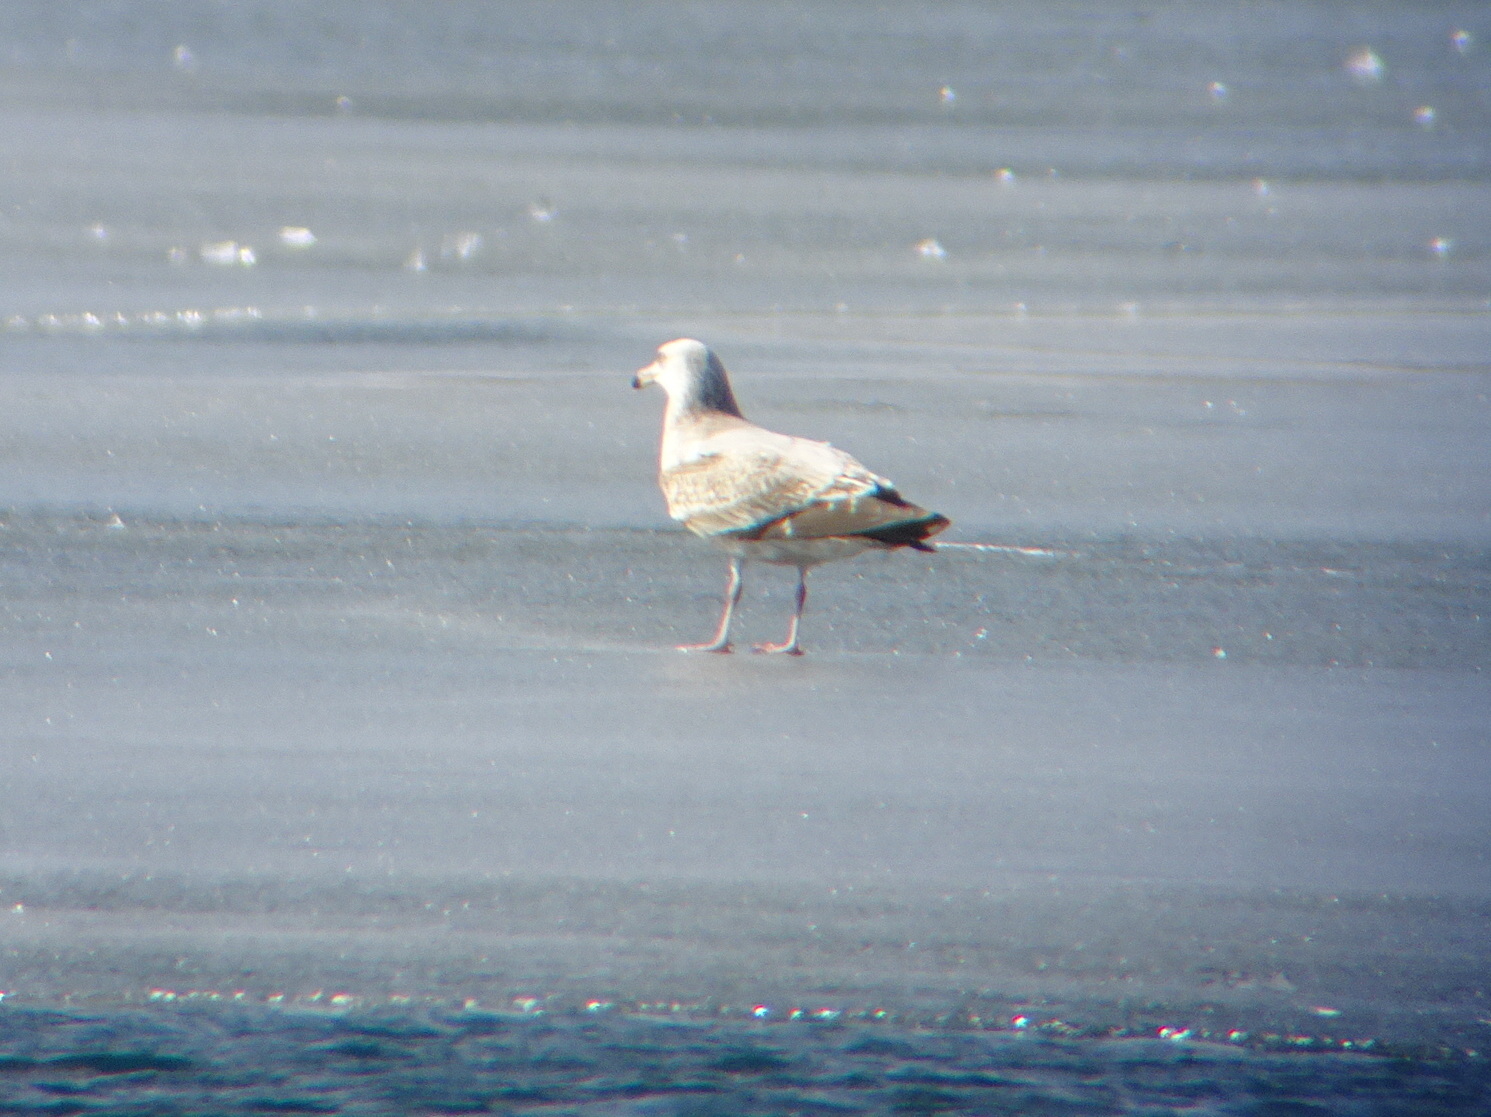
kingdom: Animalia
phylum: Chordata
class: Aves
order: Charadriiformes
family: Laridae
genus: Larus
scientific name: Larus argentatus
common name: Herring gull
